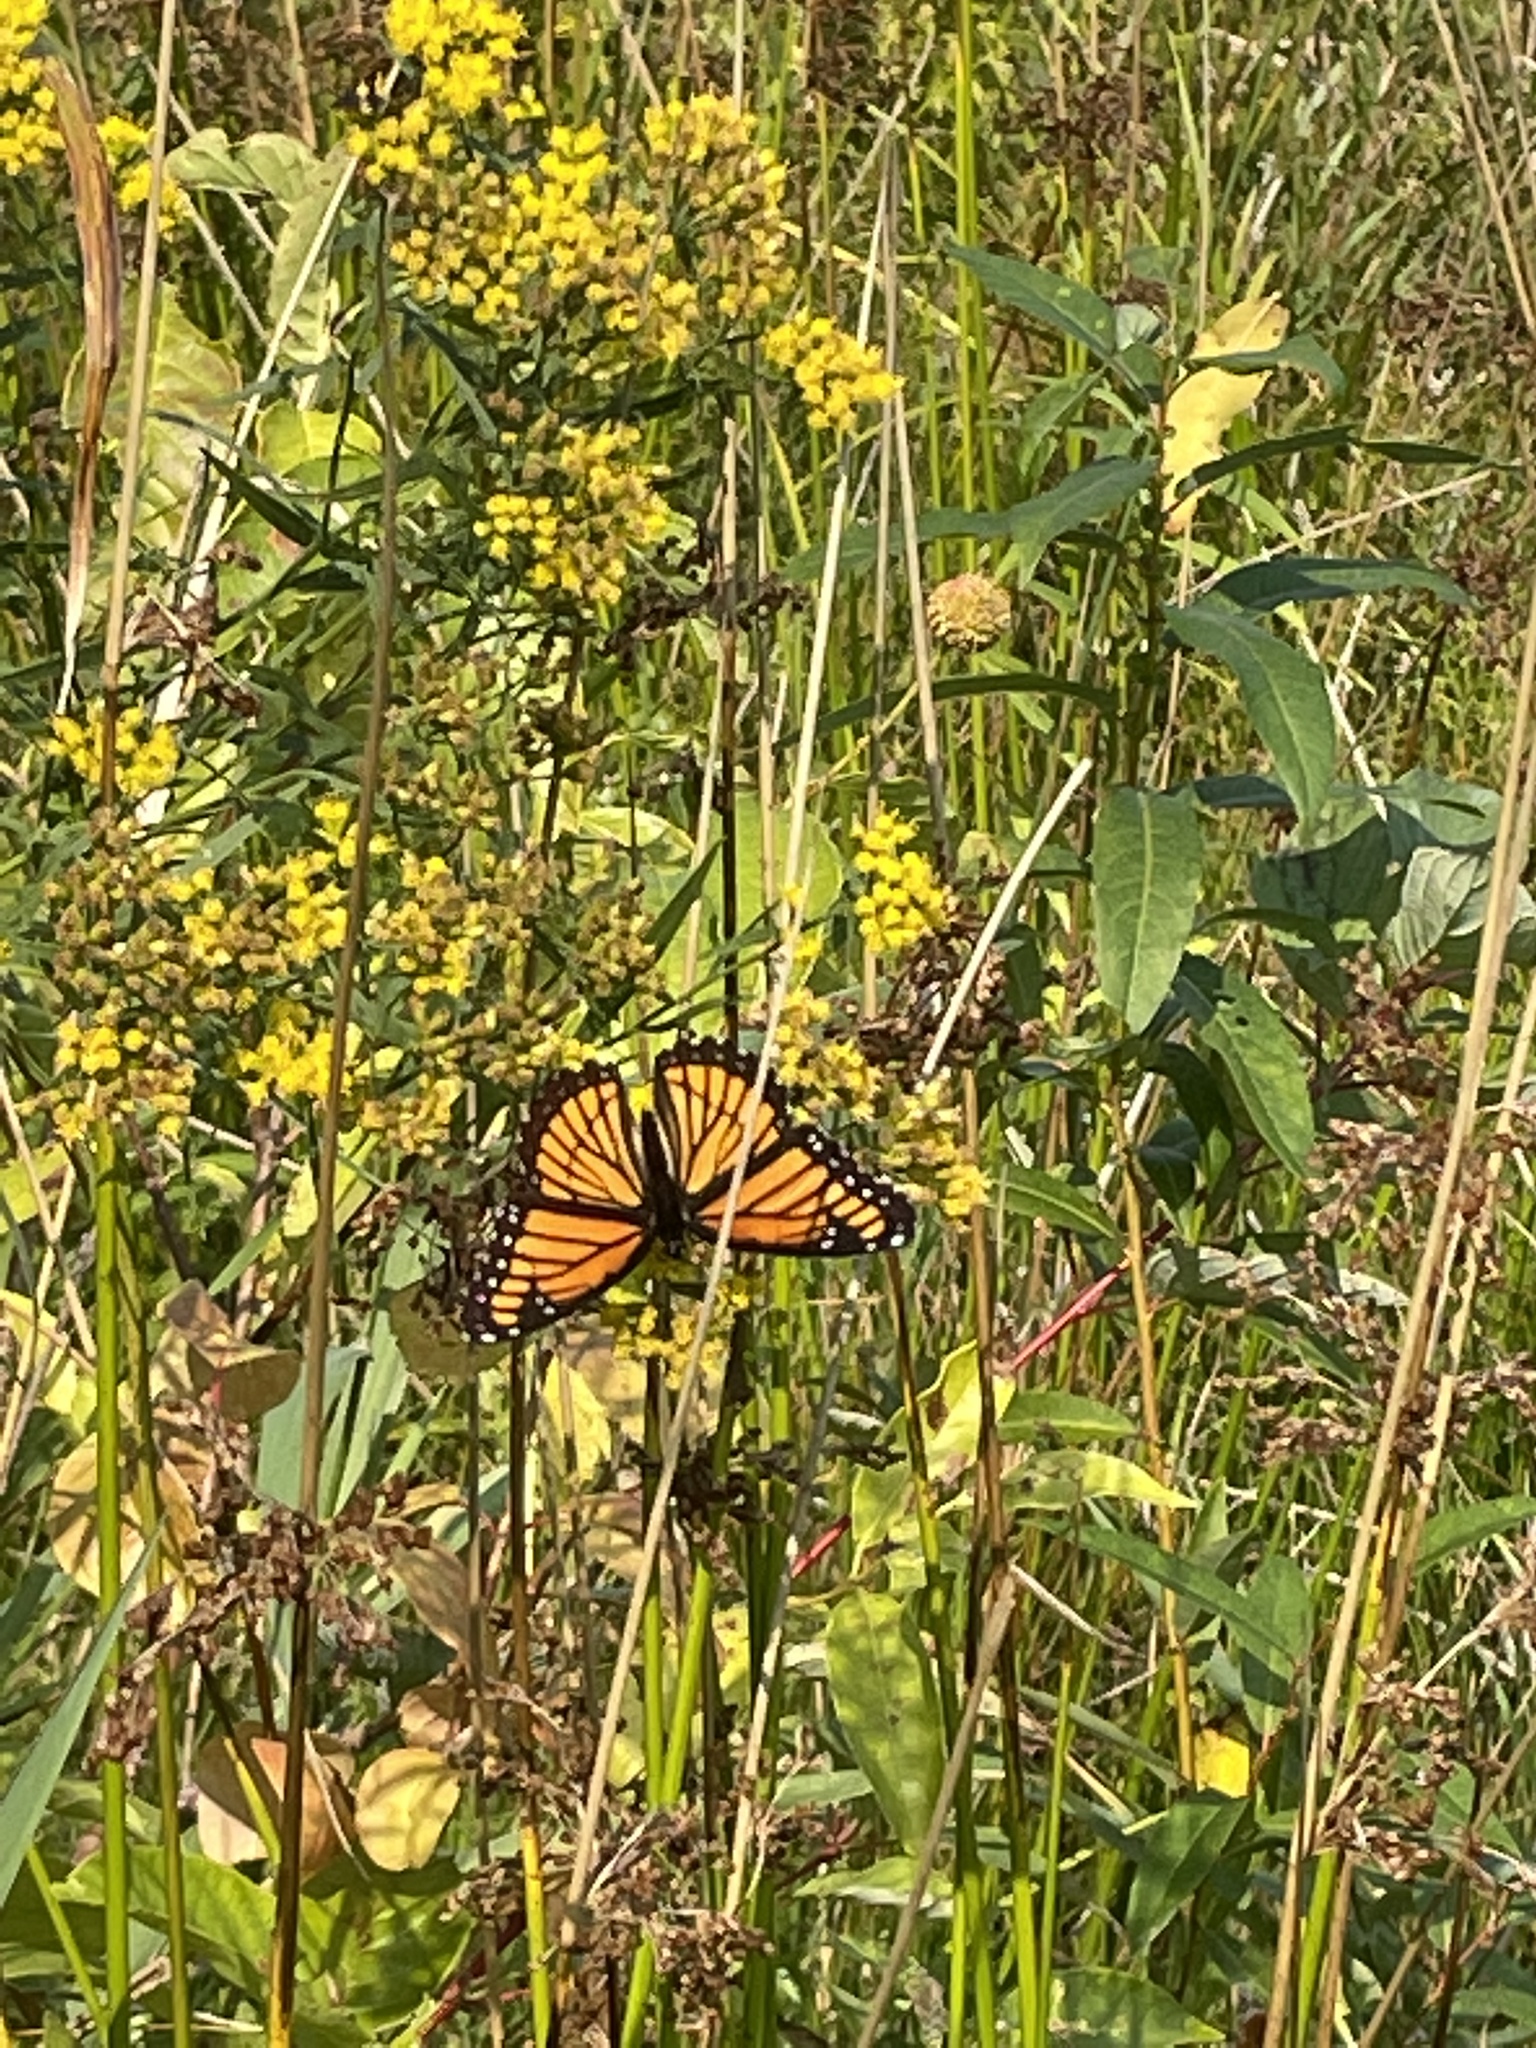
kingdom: Animalia
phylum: Arthropoda
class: Insecta
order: Lepidoptera
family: Nymphalidae
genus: Limenitis
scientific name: Limenitis archippus
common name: Viceroy
